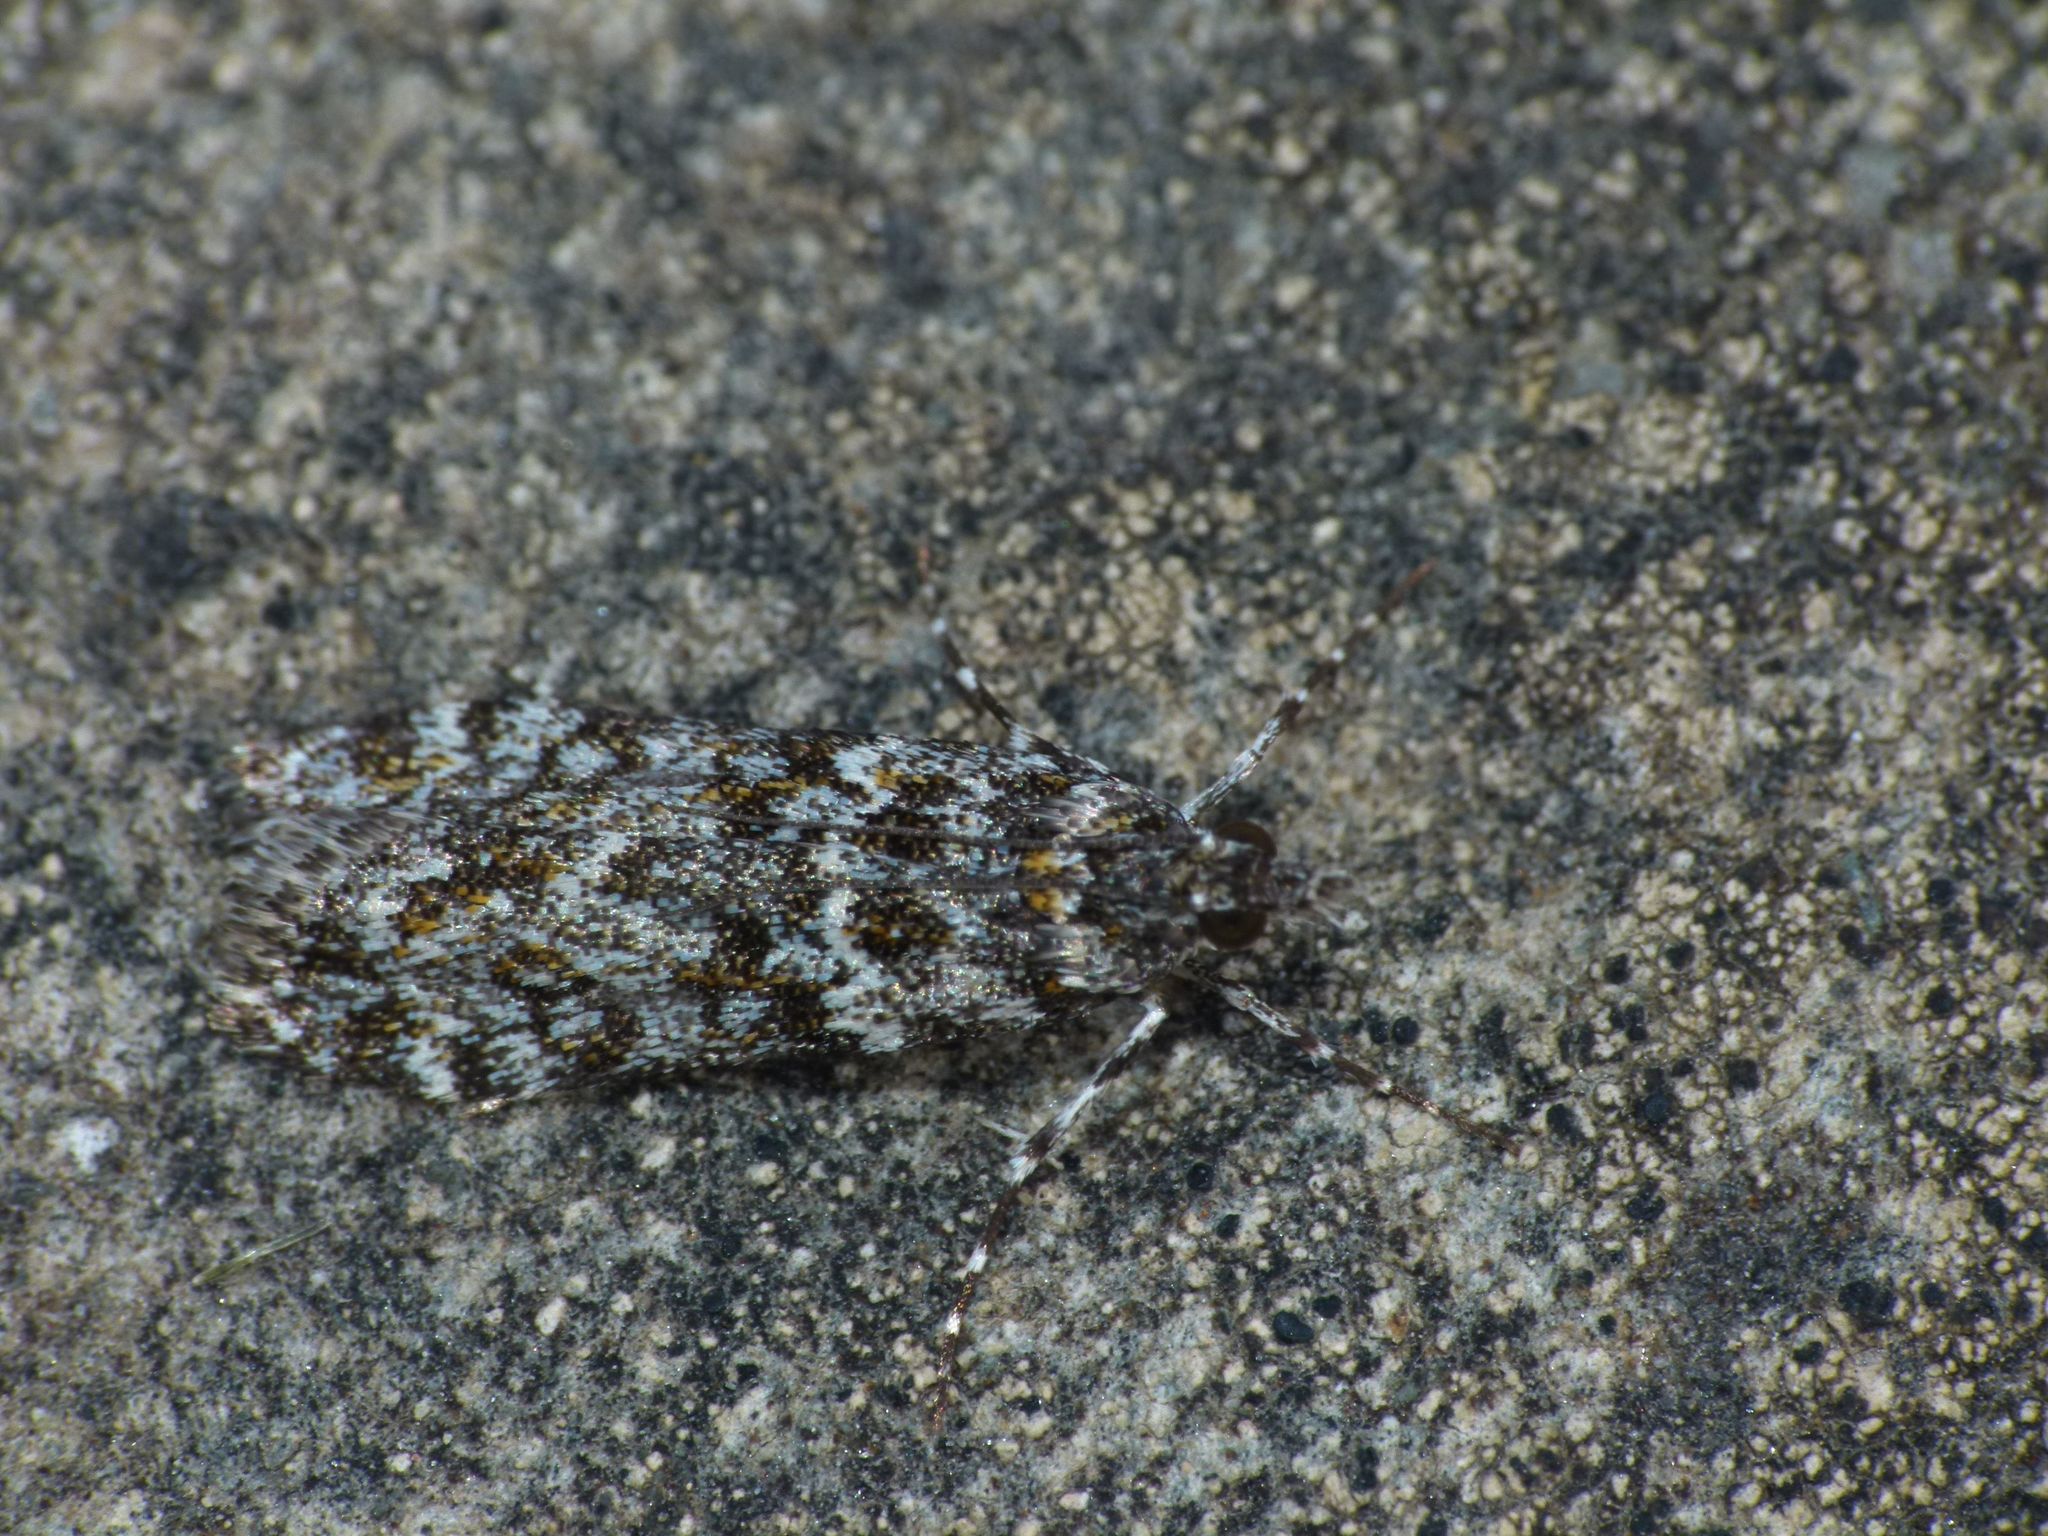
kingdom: Animalia
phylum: Arthropoda
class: Insecta
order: Lepidoptera
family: Crambidae
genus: Eudonia
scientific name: Eudonia
